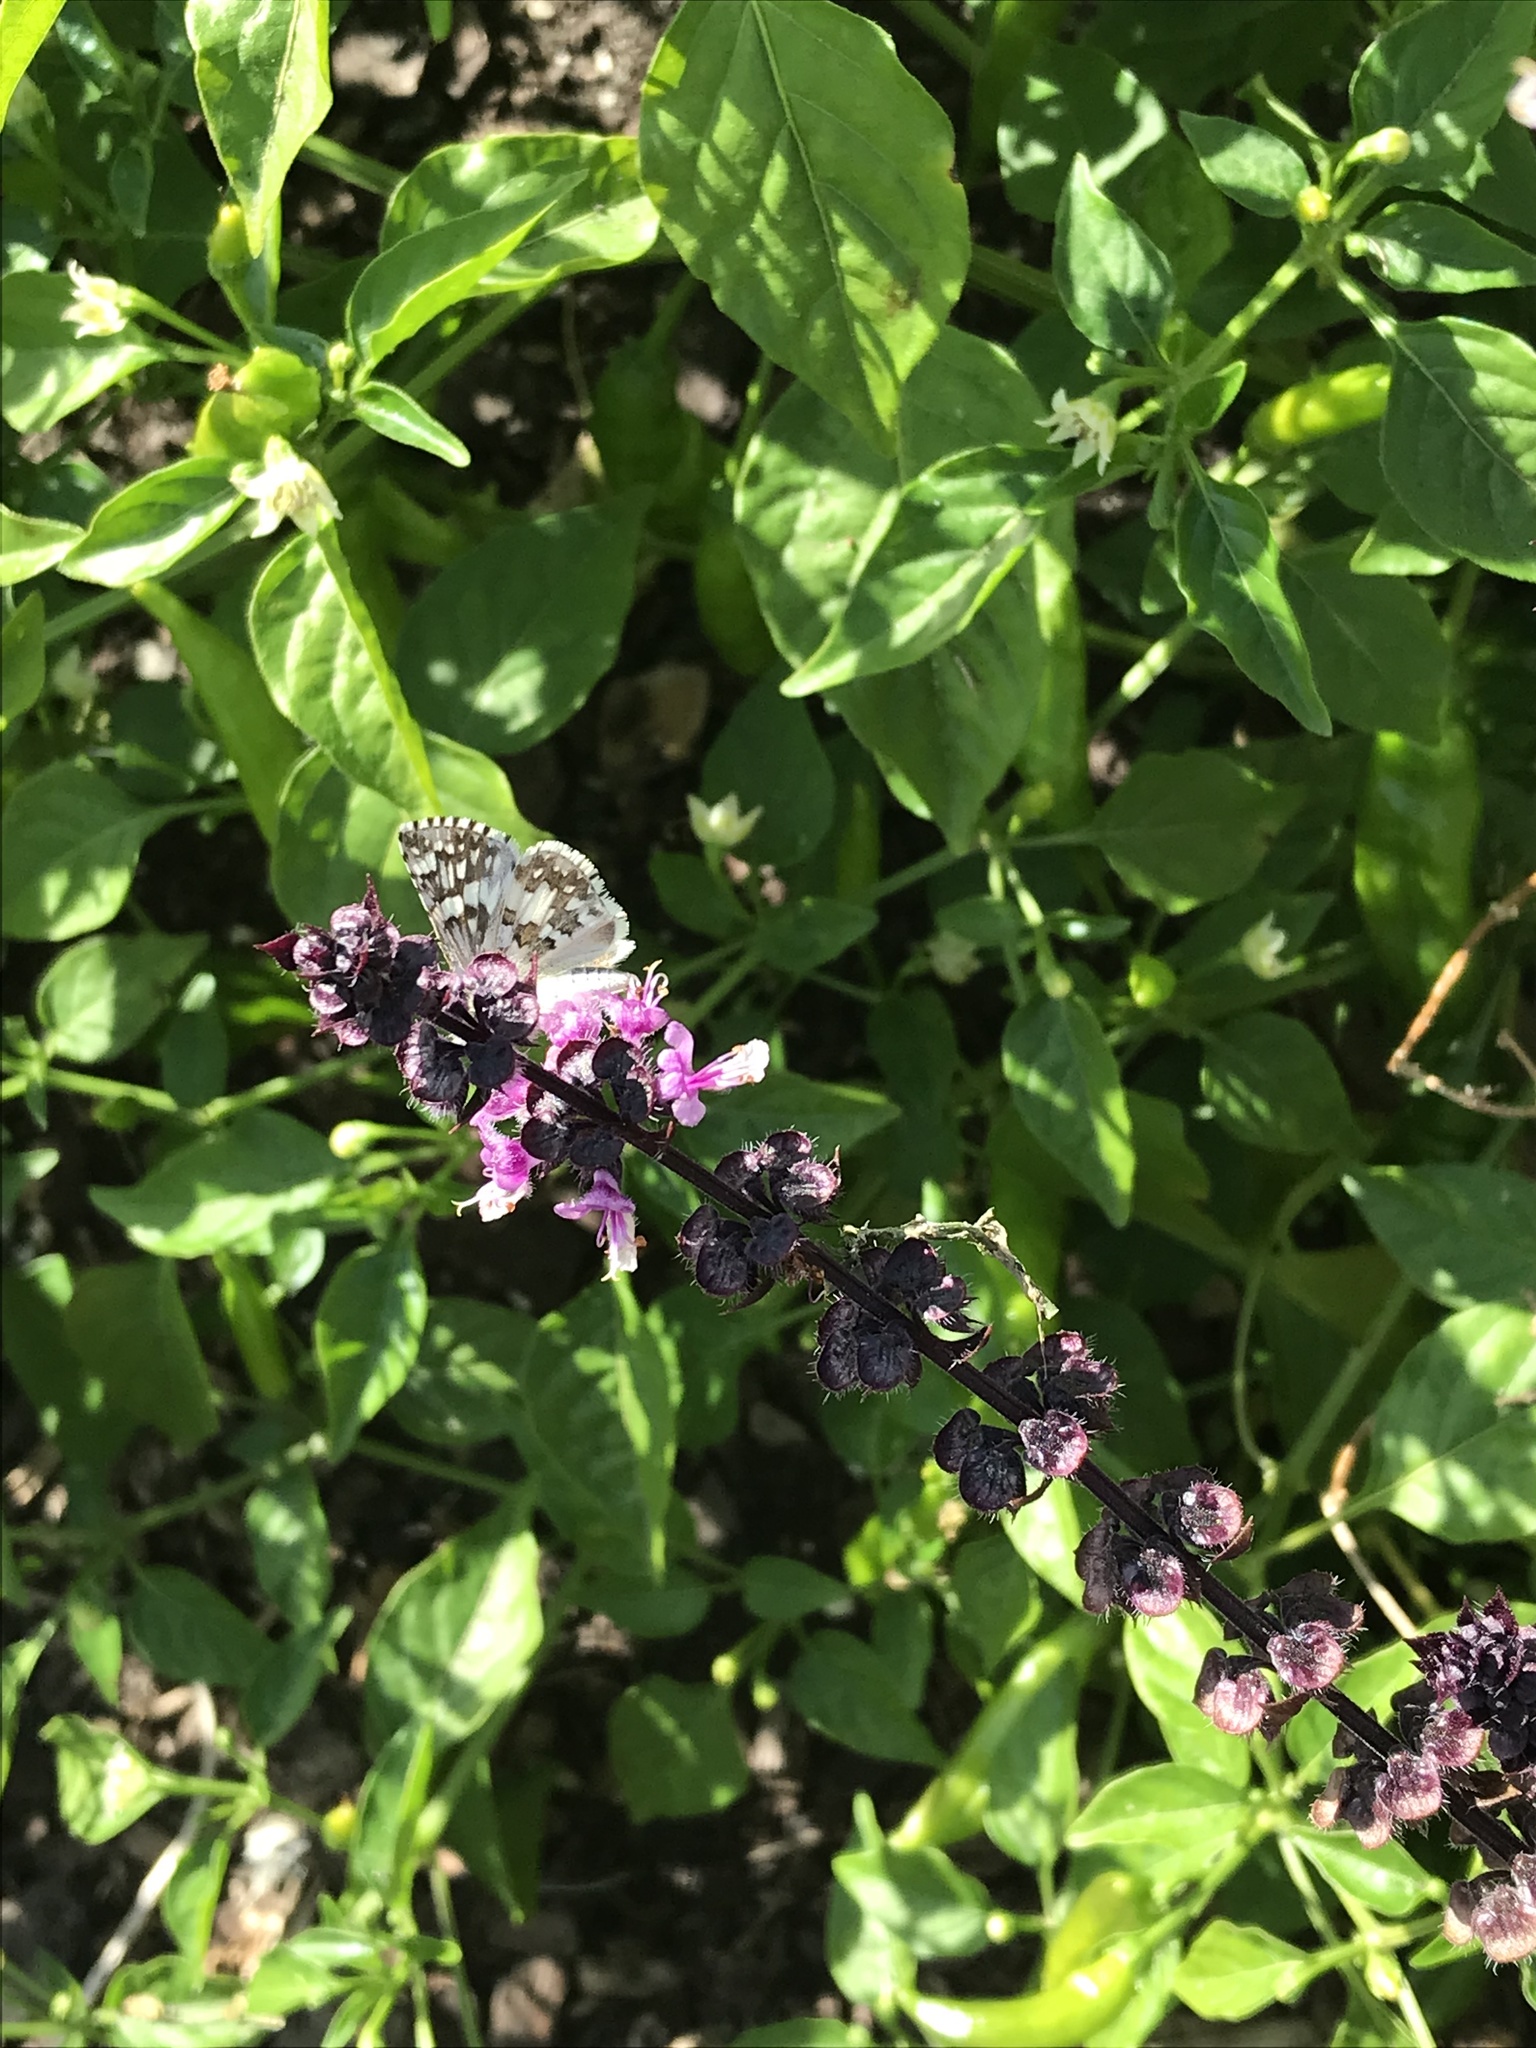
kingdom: Animalia
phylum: Arthropoda
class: Insecta
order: Lepidoptera
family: Hesperiidae
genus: Burnsius
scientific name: Burnsius
